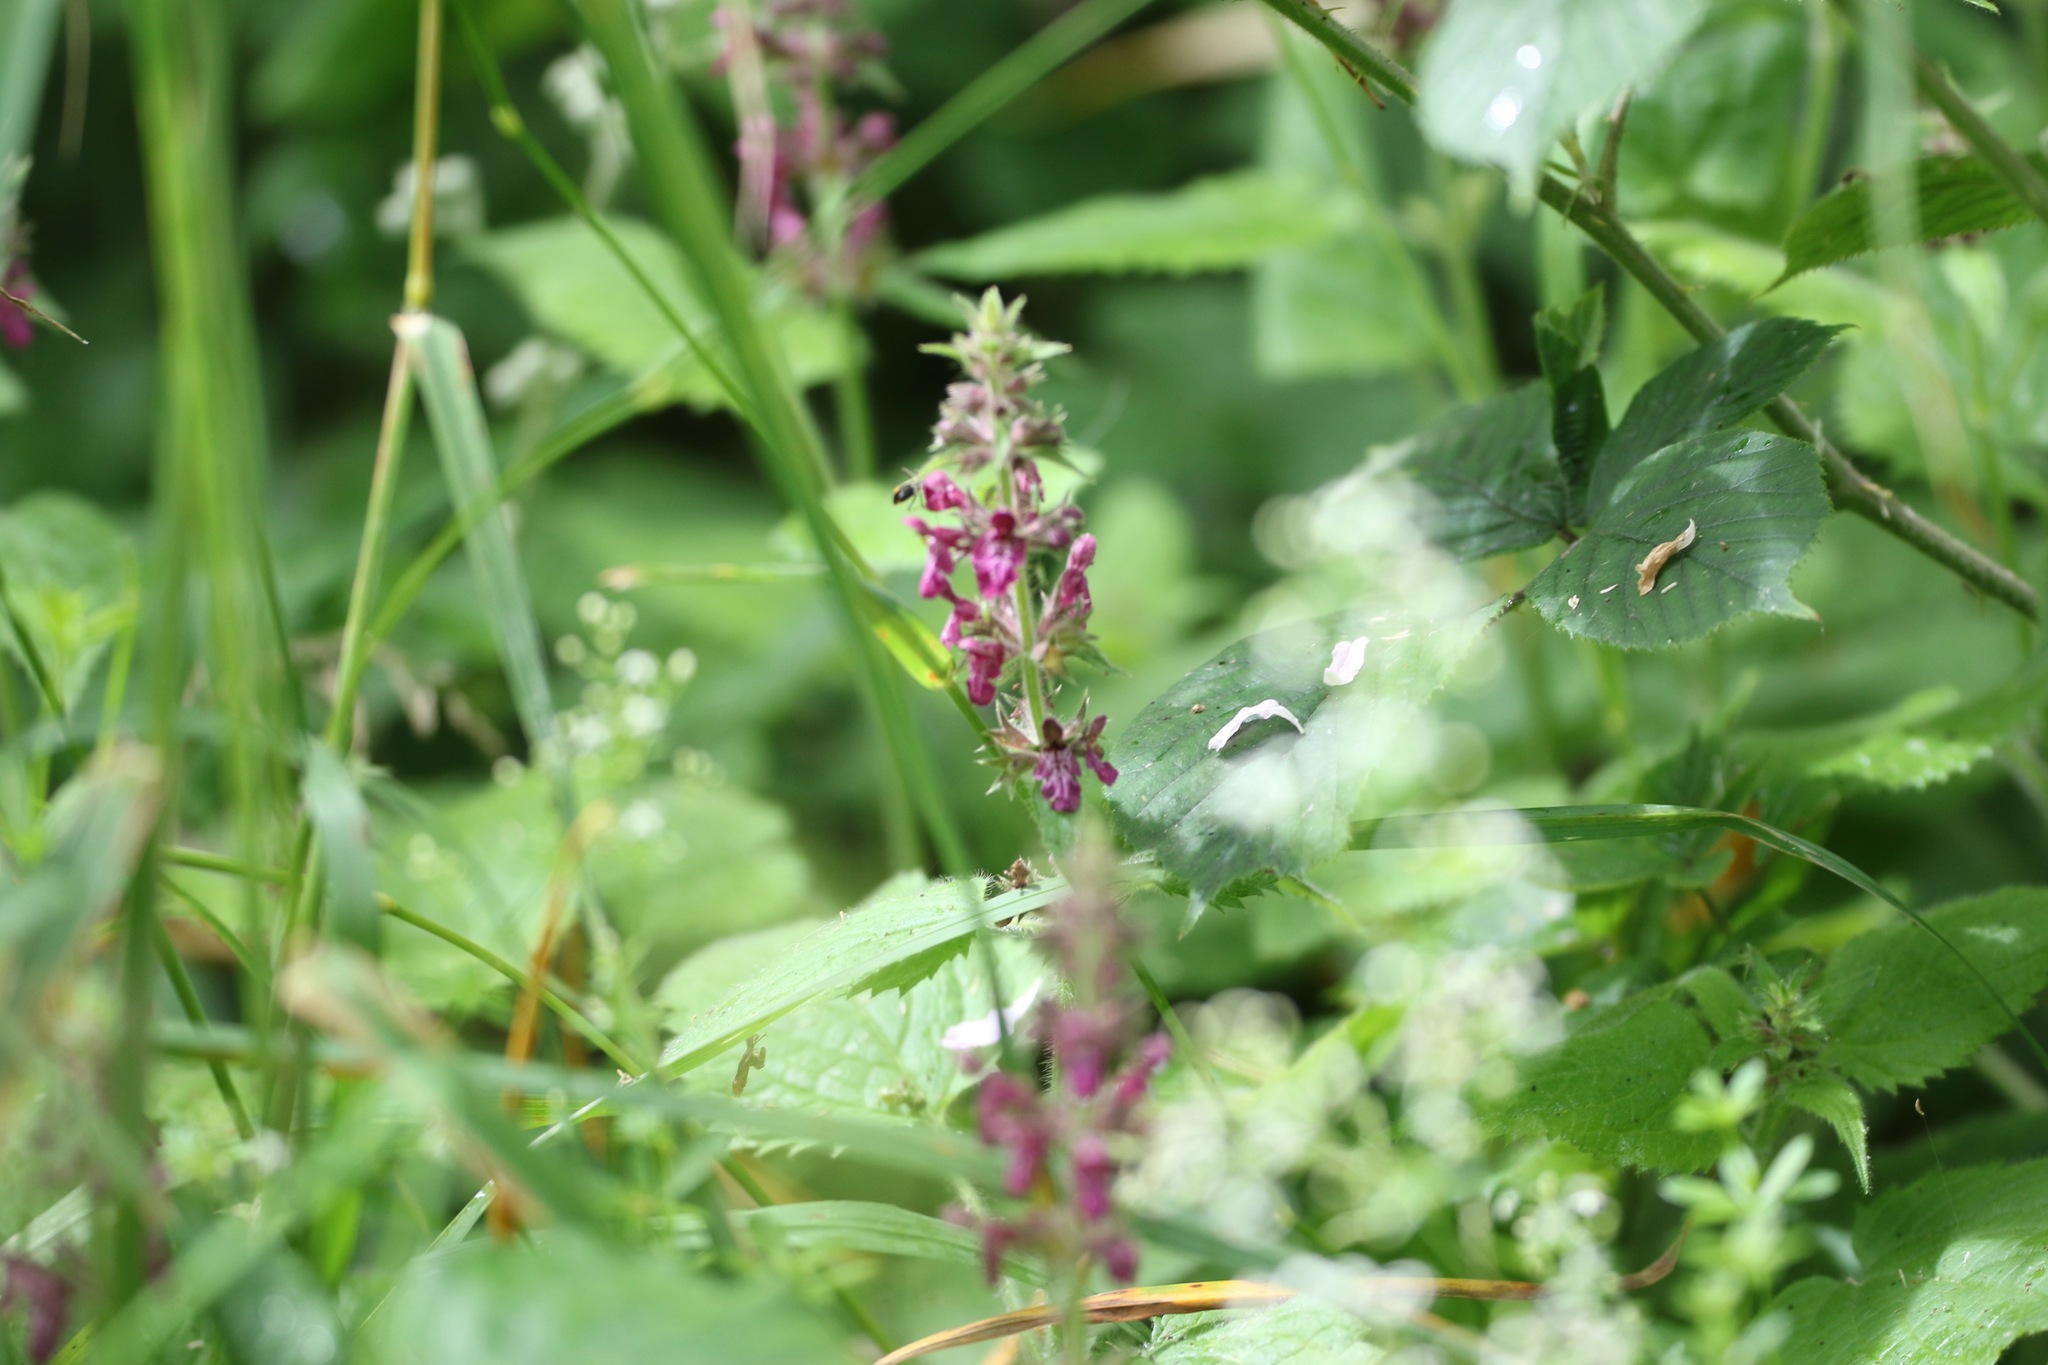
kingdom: Plantae
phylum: Tracheophyta
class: Magnoliopsida
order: Lamiales
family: Lamiaceae
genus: Stachys
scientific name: Stachys sylvatica
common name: Hedge woundwort
